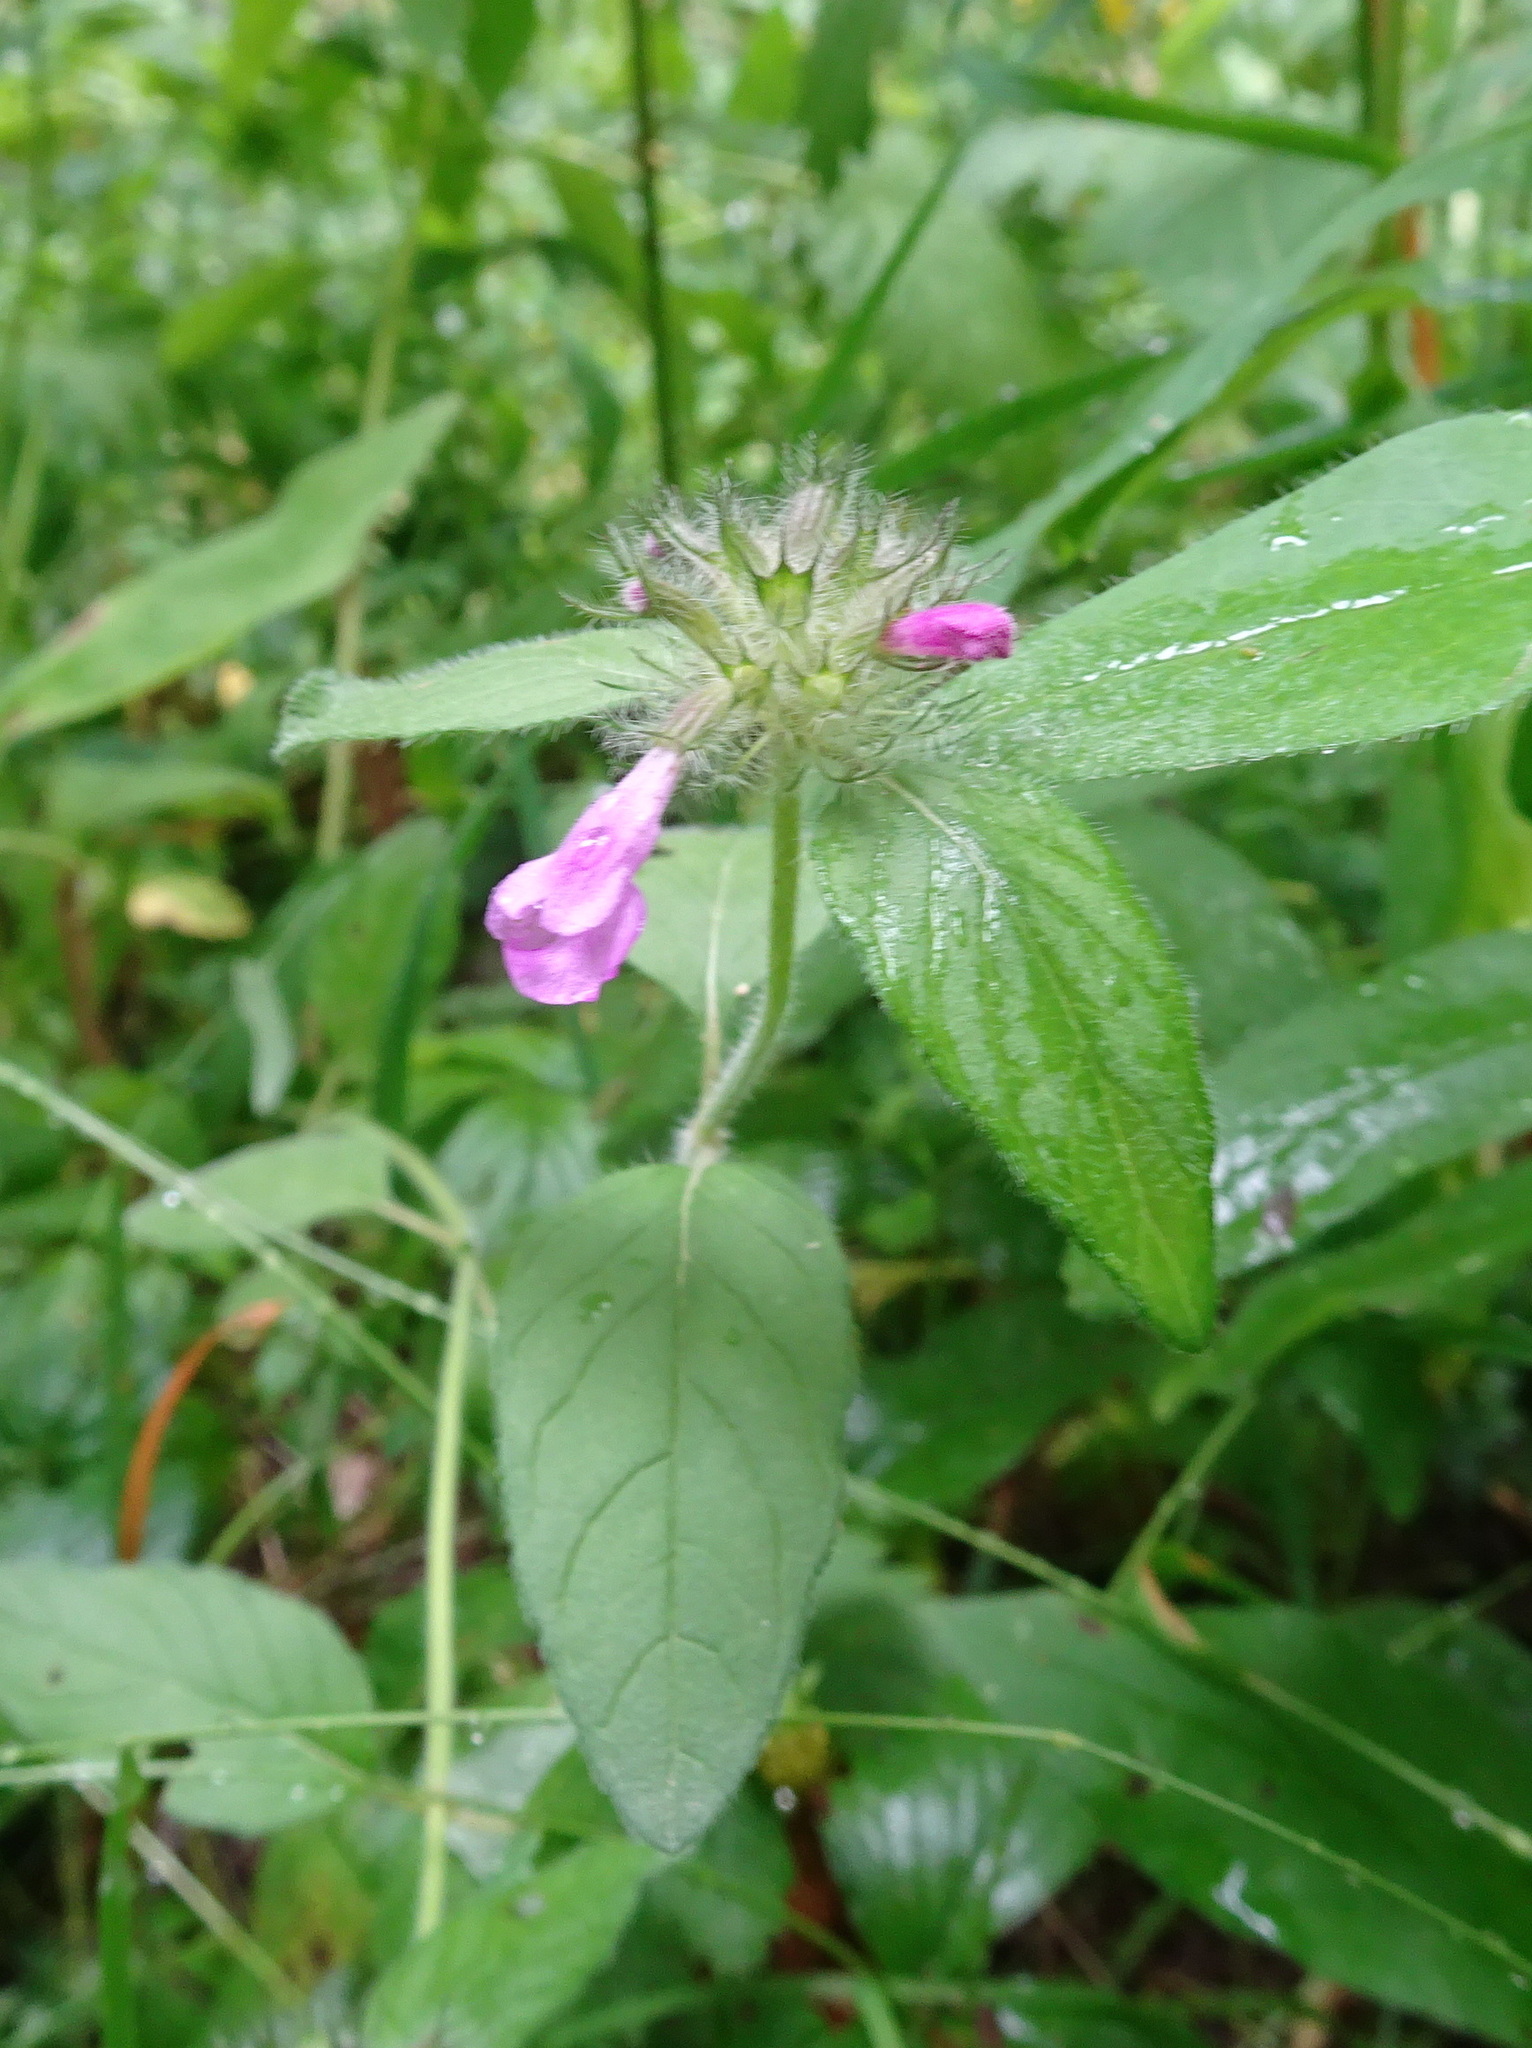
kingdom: Plantae
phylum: Tracheophyta
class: Magnoliopsida
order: Lamiales
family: Lamiaceae
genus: Clinopodium
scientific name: Clinopodium vulgare
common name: Wild basil
